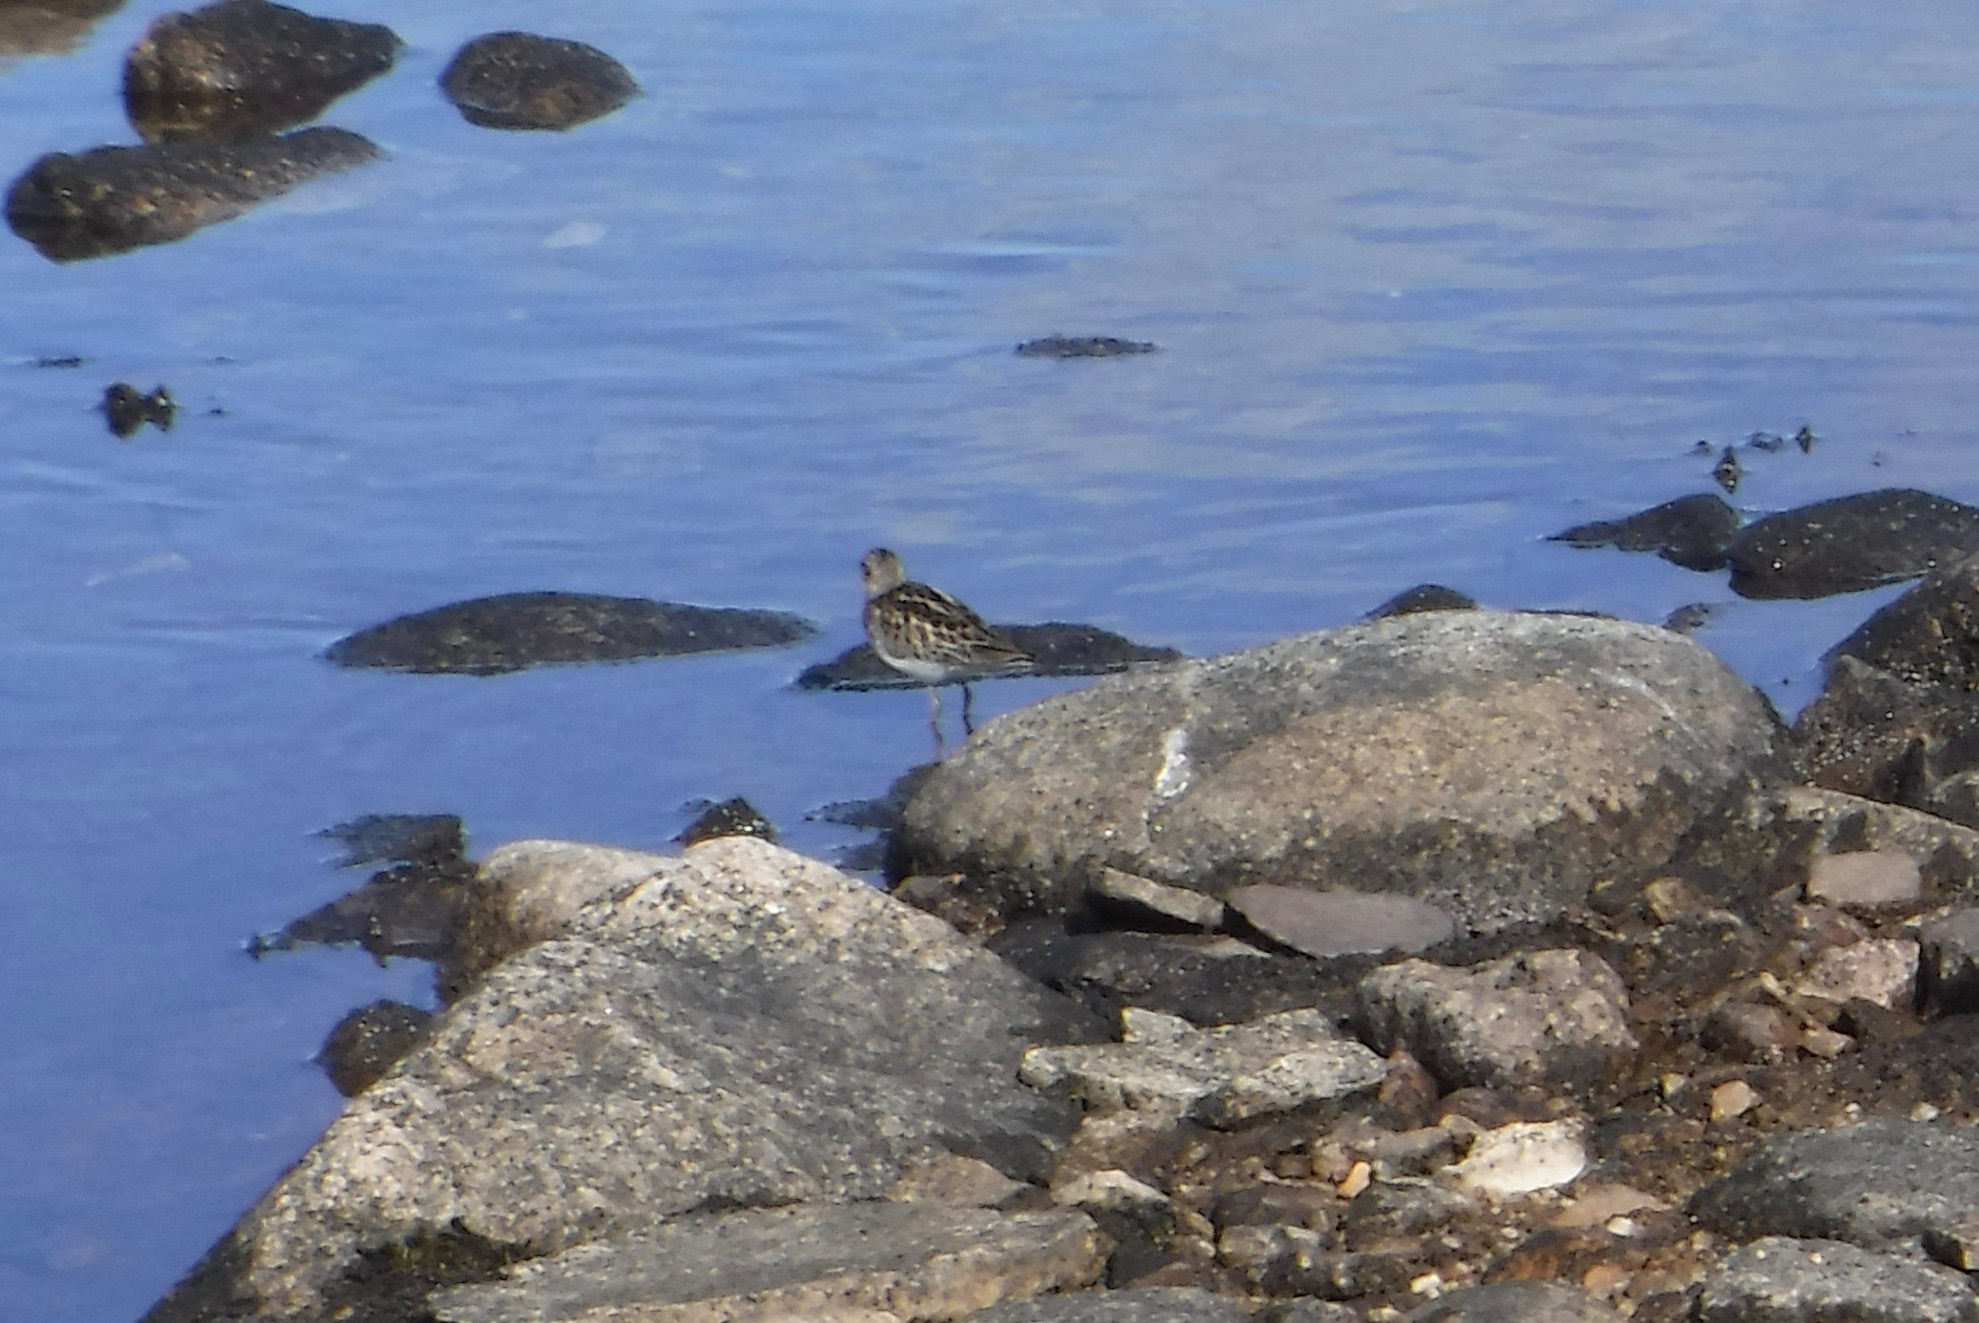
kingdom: Animalia
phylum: Chordata
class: Aves
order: Charadriiformes
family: Scolopacidae
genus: Calidris
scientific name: Calidris minutilla
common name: Least sandpiper
